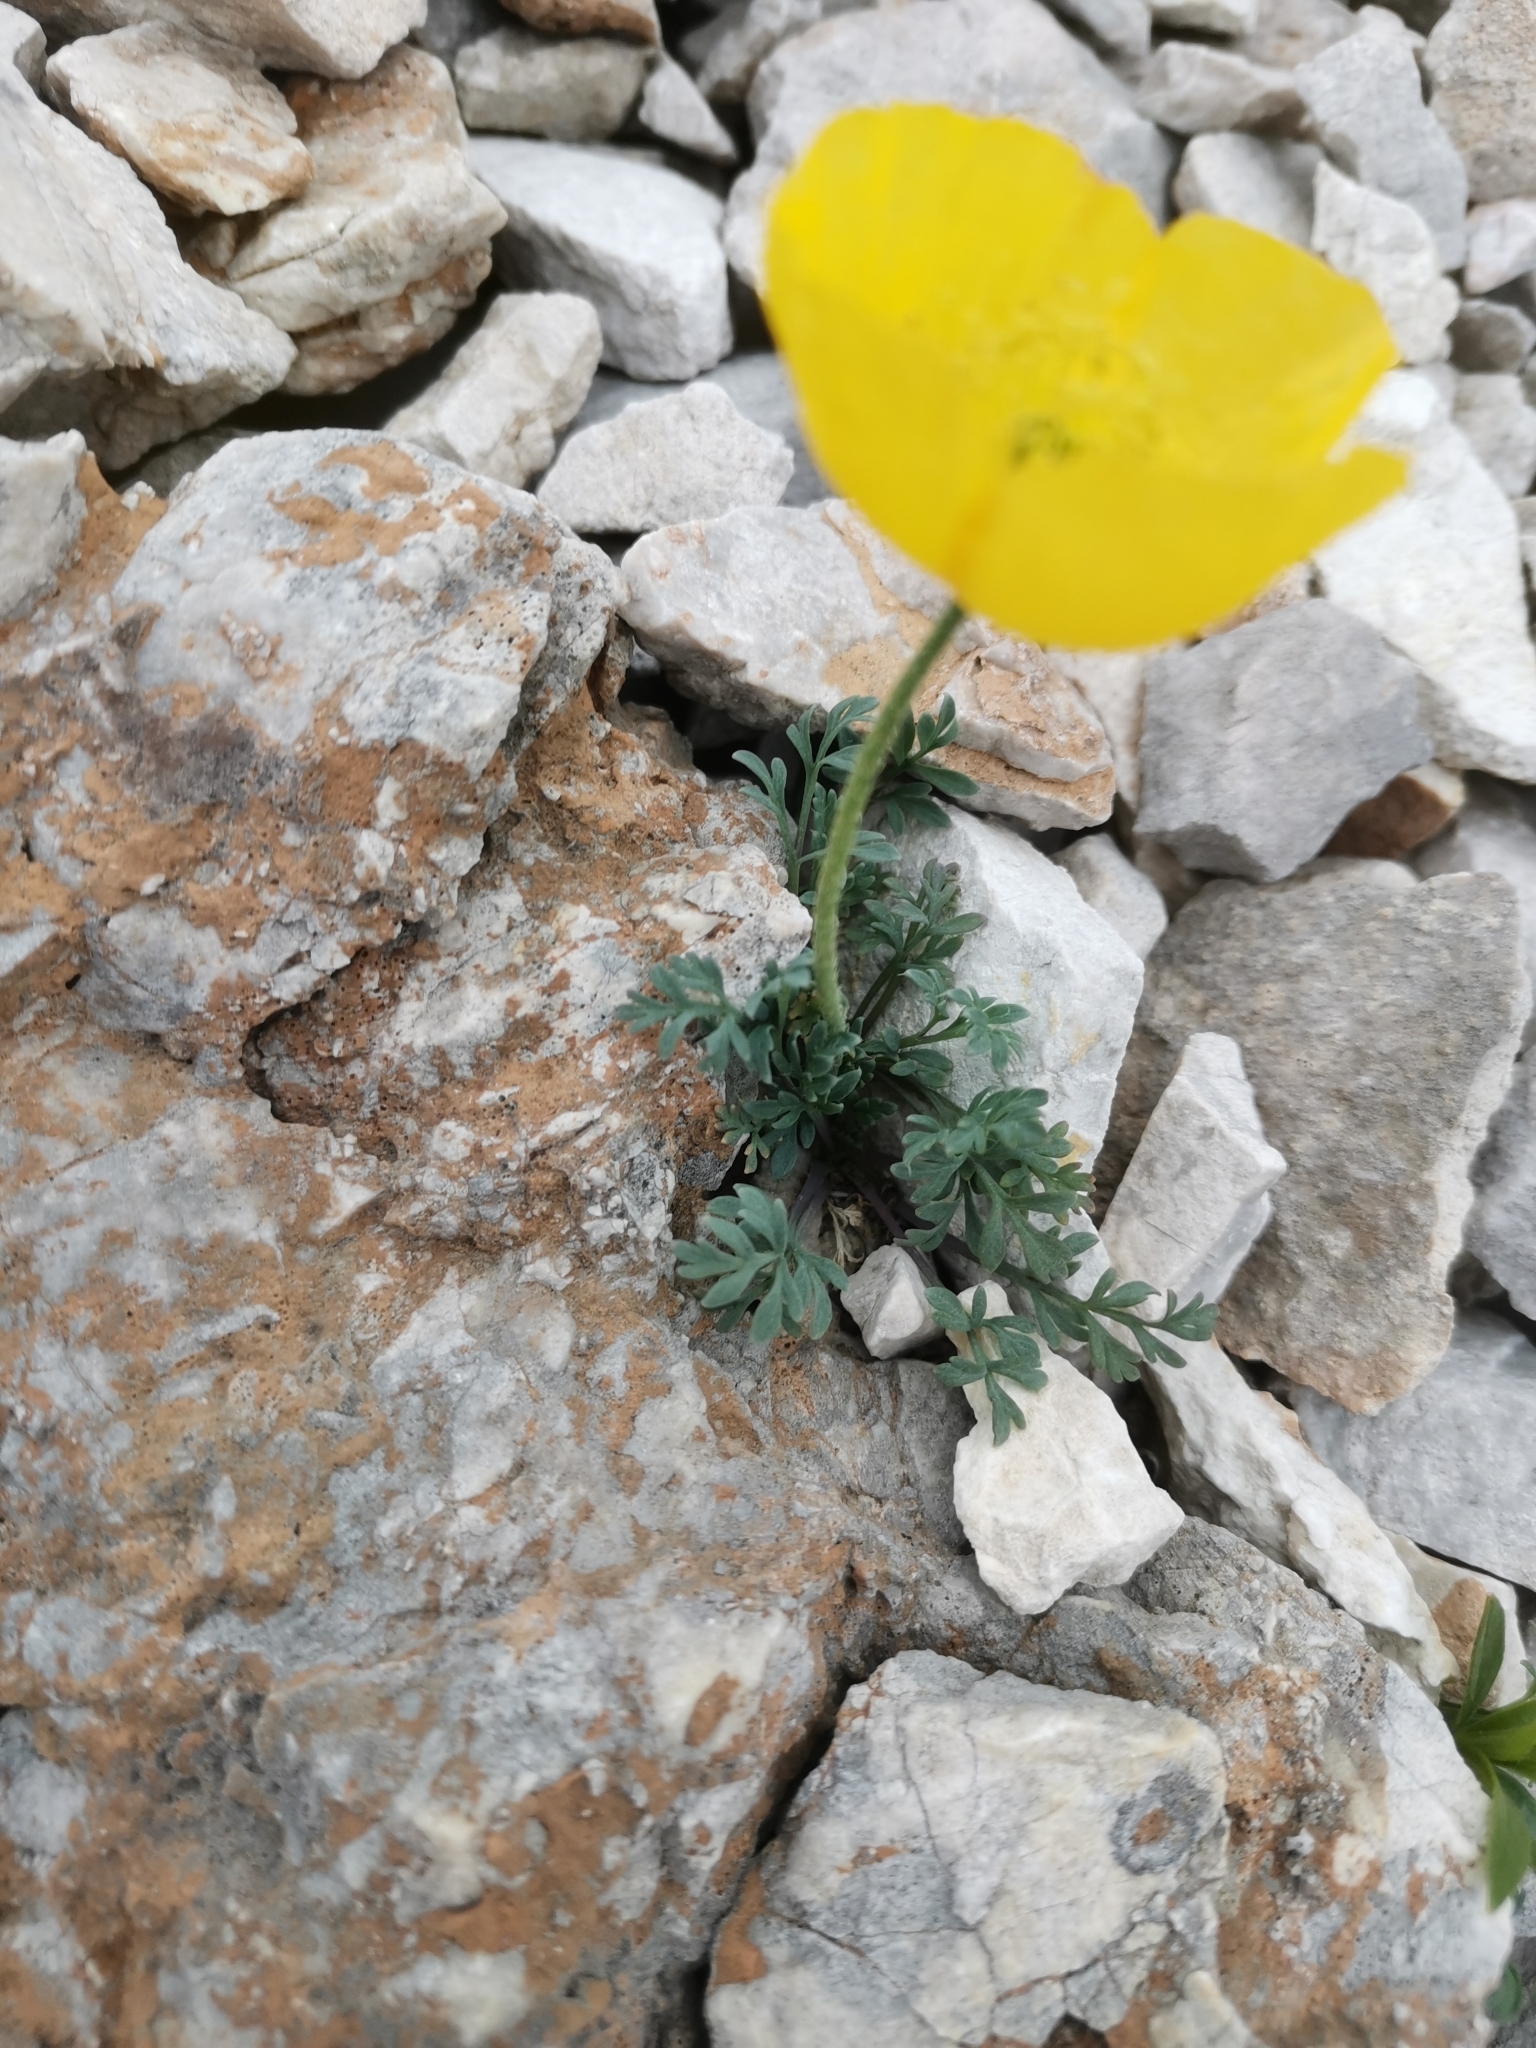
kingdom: Plantae
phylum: Tracheophyta
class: Magnoliopsida
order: Ranunculales
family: Papaveraceae
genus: Papaver
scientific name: Papaver alpinum
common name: Austrian poppy
